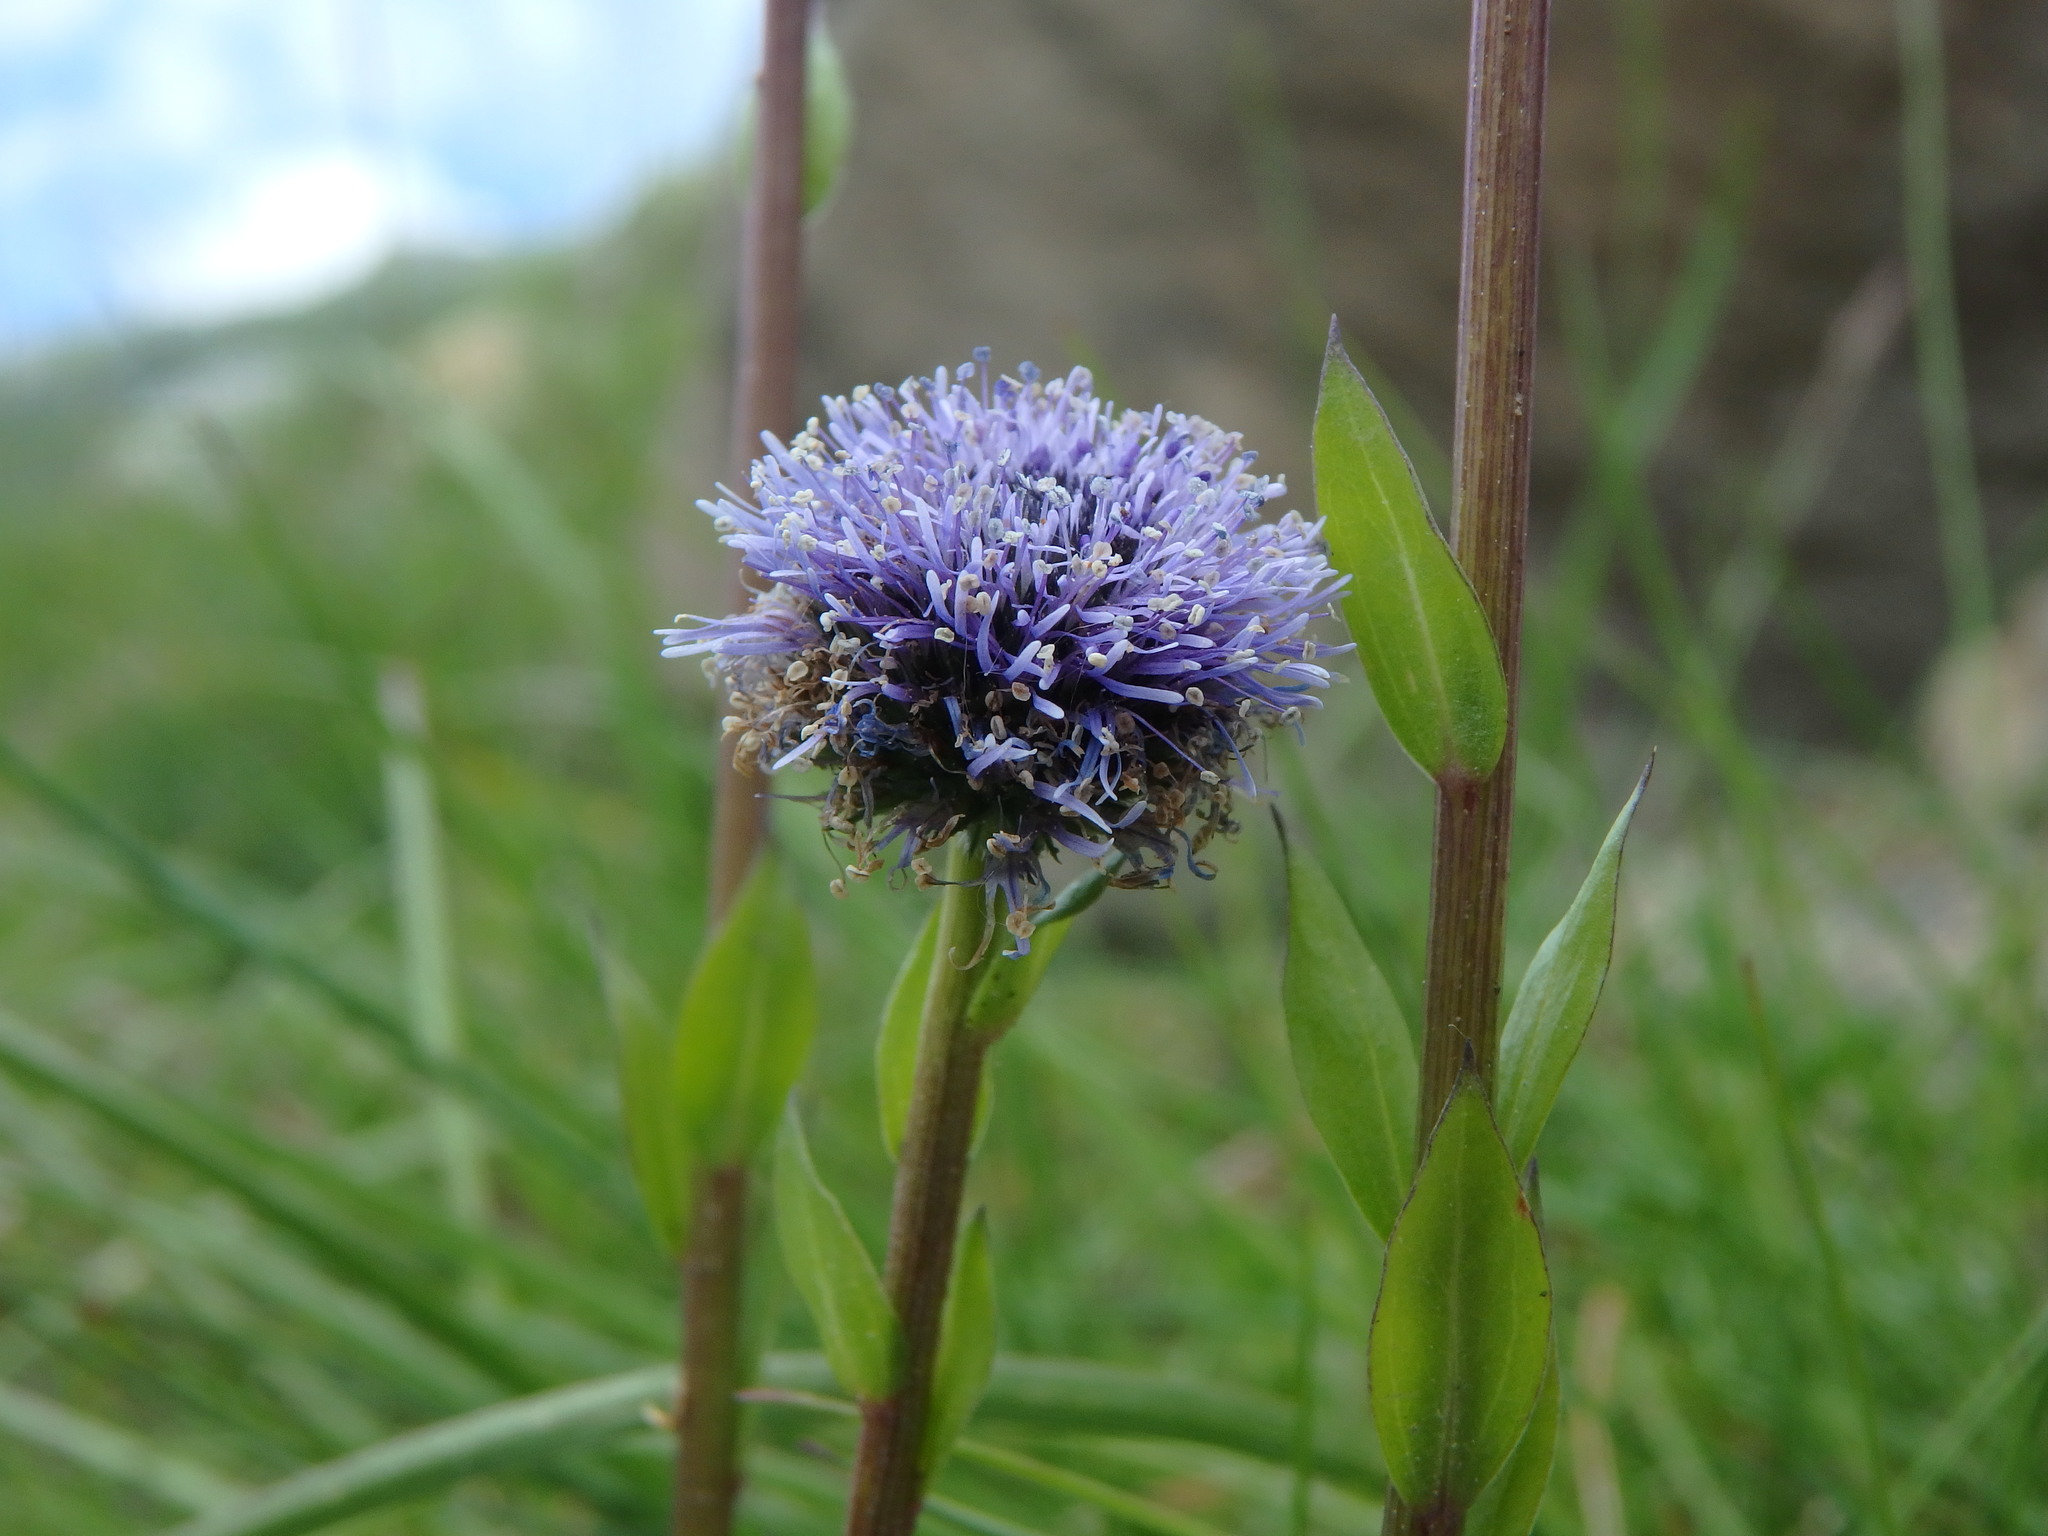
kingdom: Plantae
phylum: Tracheophyta
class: Magnoliopsida
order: Lamiales
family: Plantaginaceae
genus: Globularia
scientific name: Globularia bisnagarica
